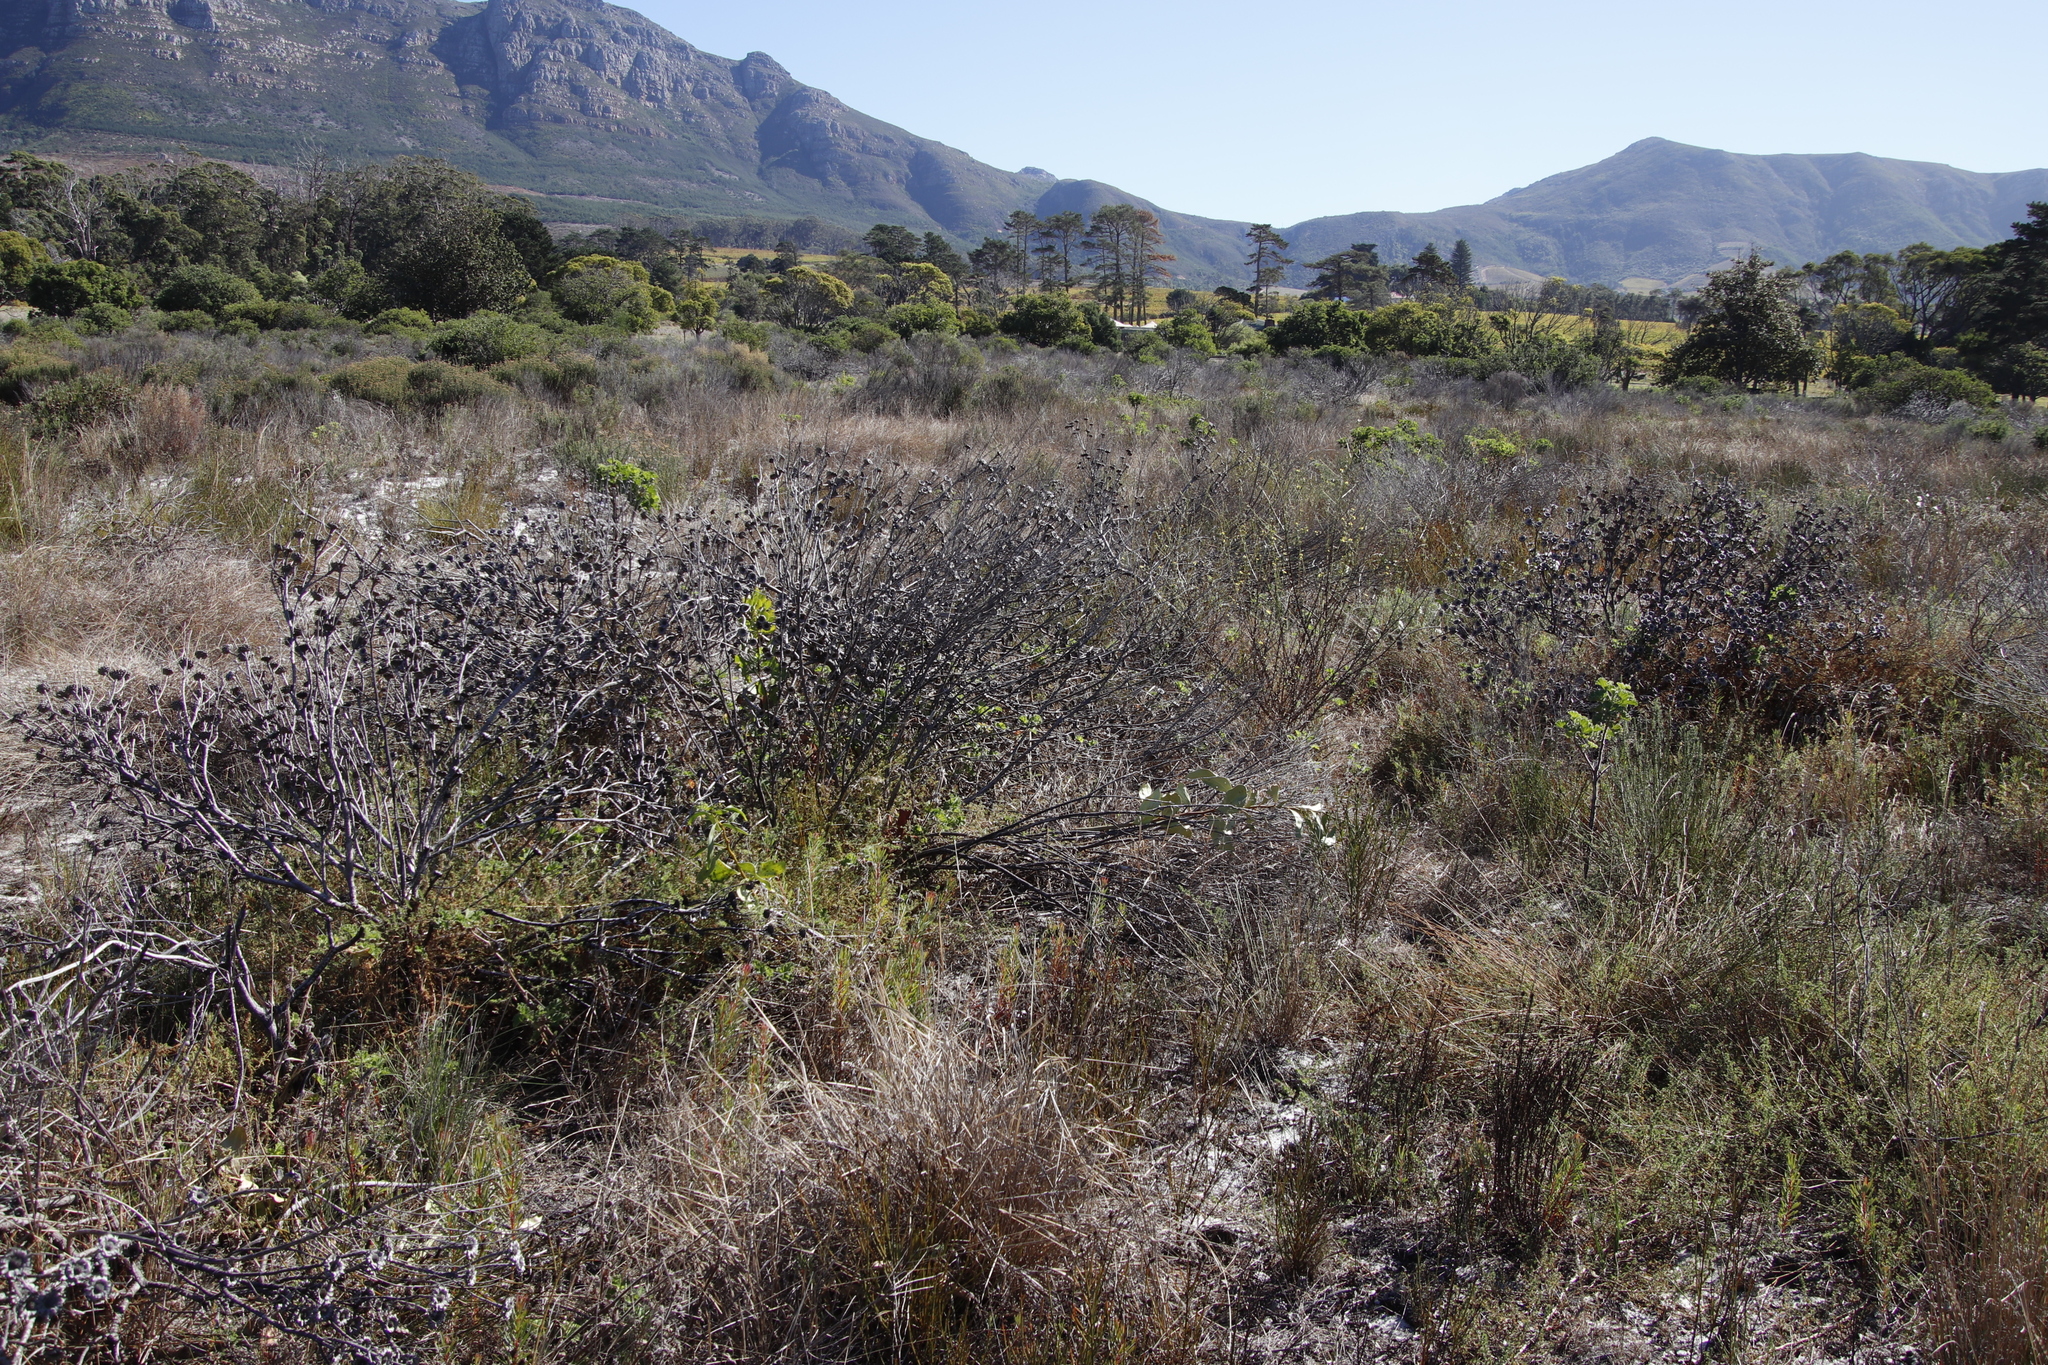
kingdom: Plantae
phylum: Tracheophyta
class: Magnoliopsida
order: Proteales
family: Proteaceae
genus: Protea
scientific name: Protea repens
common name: Sugarbush
